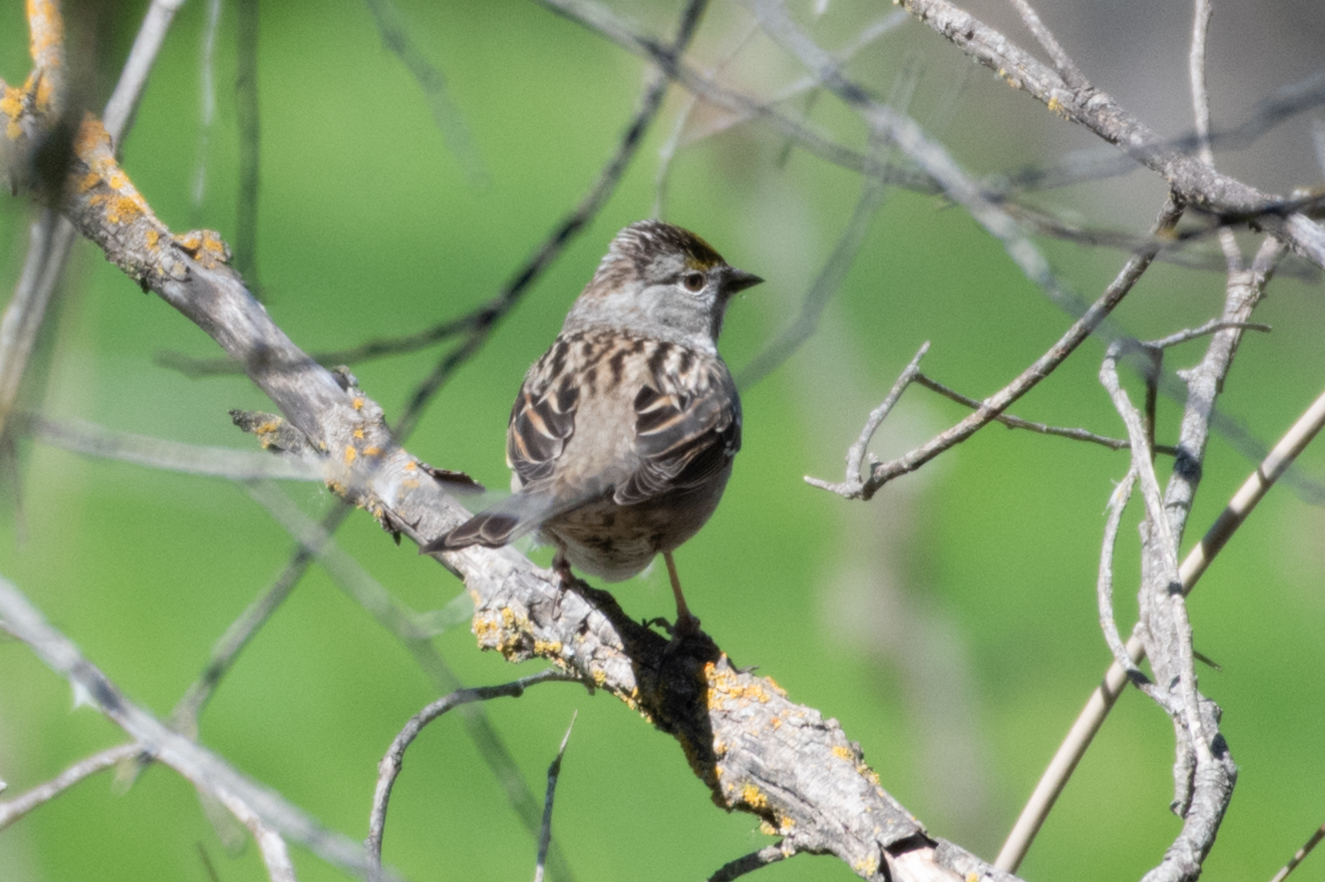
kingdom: Animalia
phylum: Chordata
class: Aves
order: Passeriformes
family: Passerellidae
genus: Zonotrichia
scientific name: Zonotrichia atricapilla
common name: Golden-crowned sparrow
